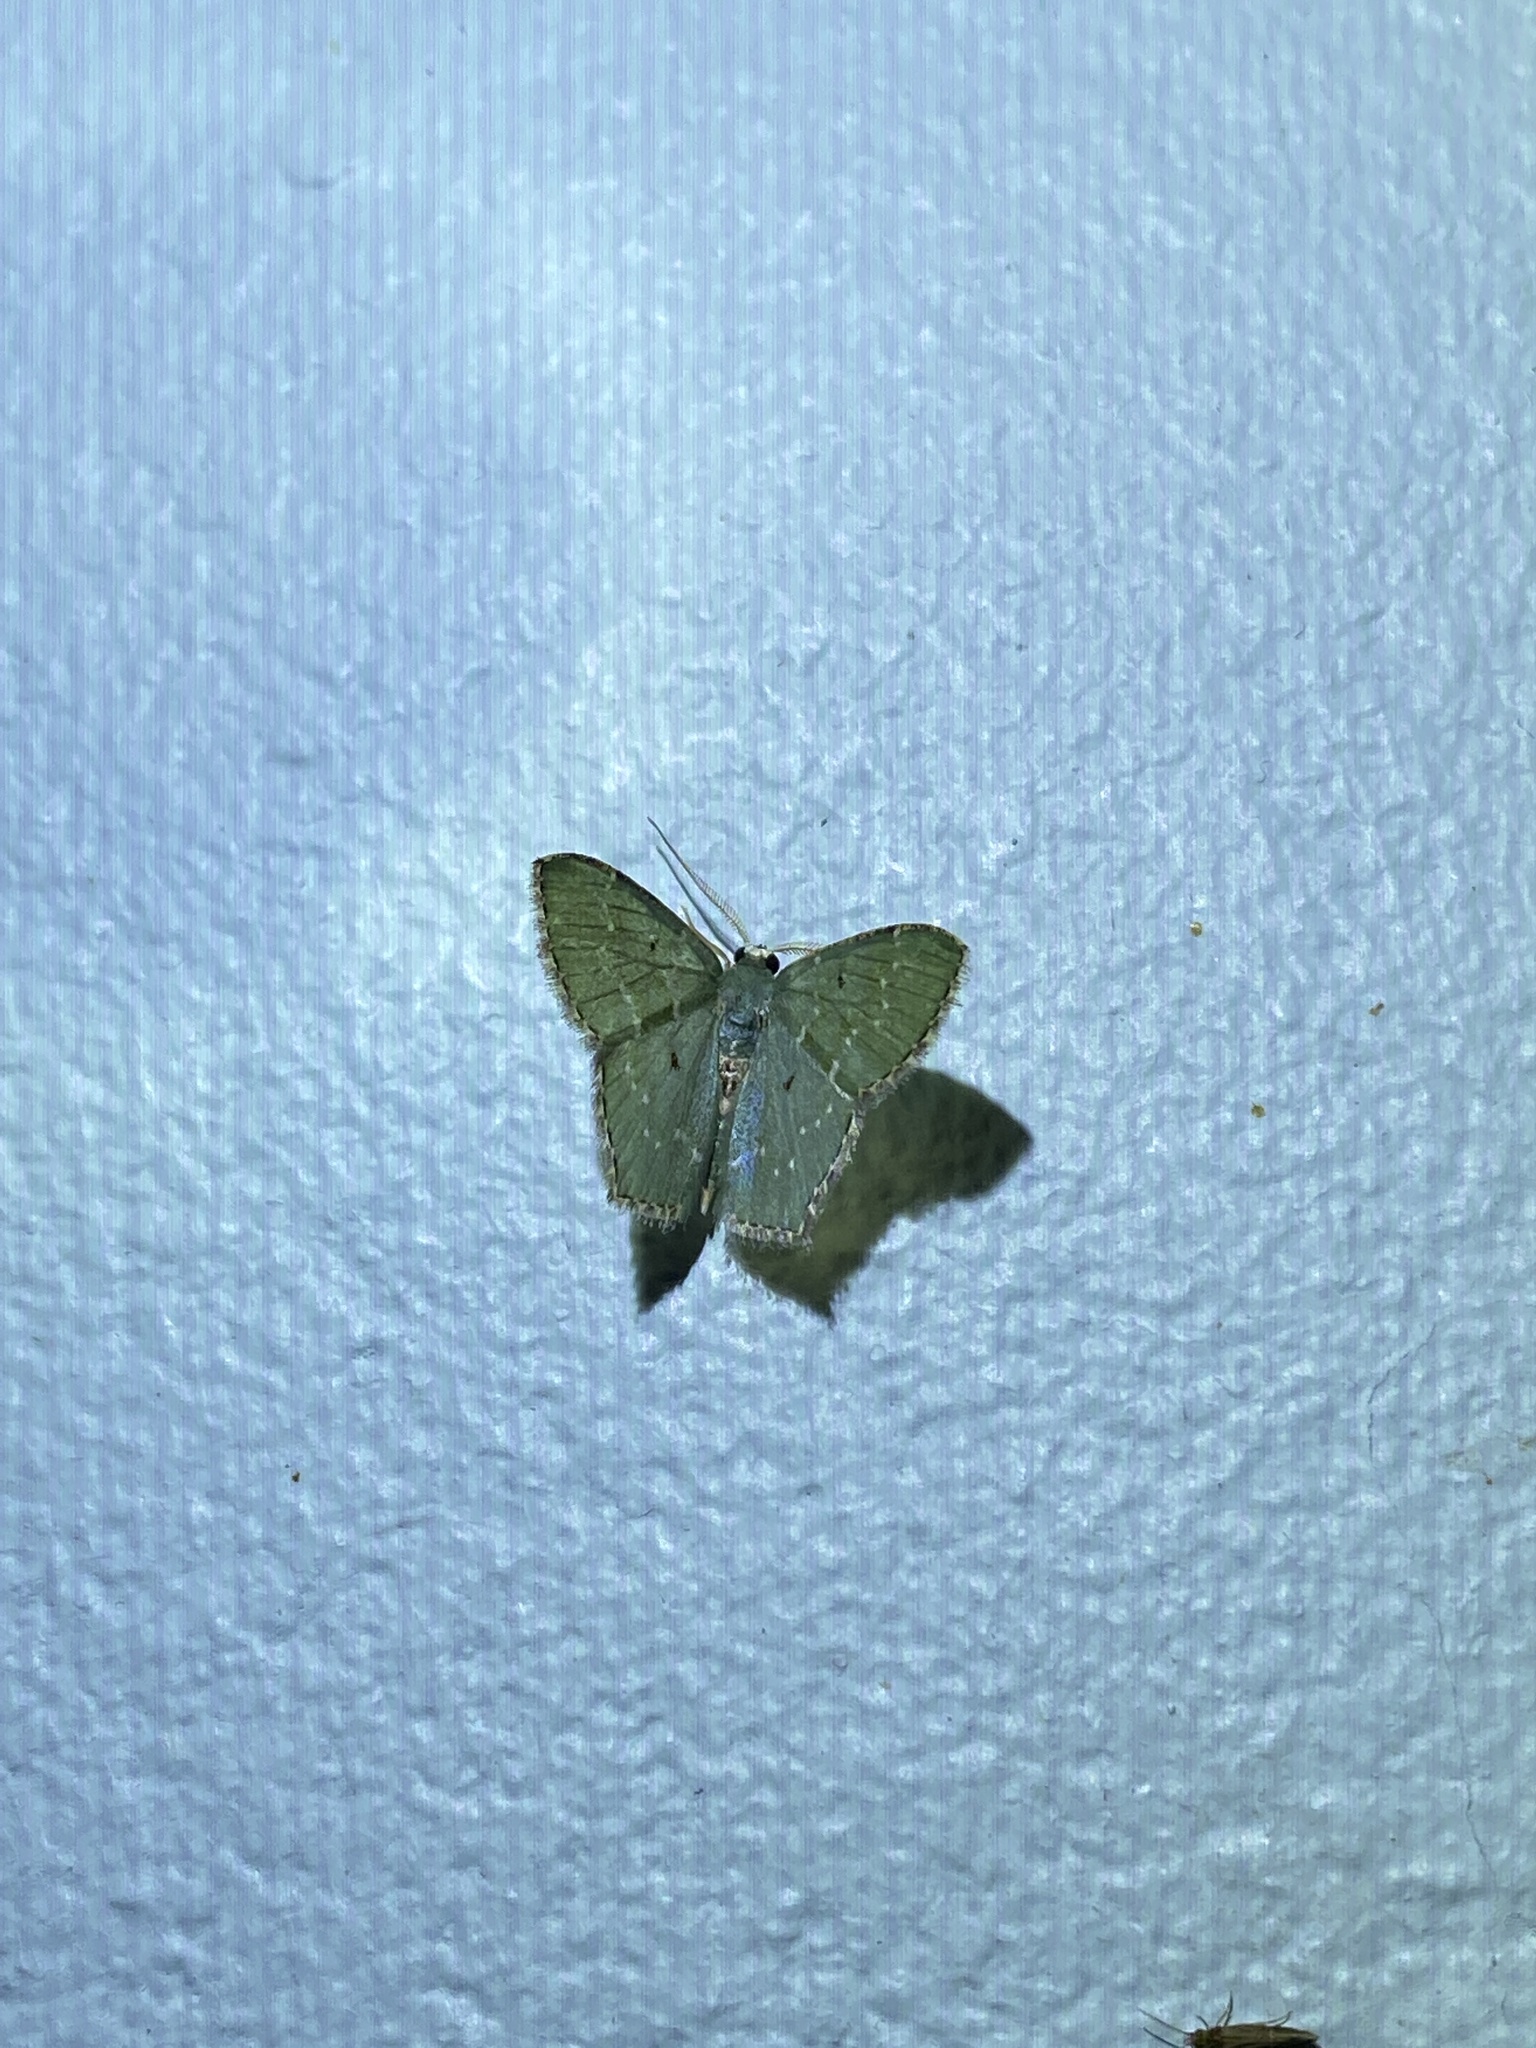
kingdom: Animalia
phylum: Arthropoda
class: Insecta
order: Lepidoptera
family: Geometridae
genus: Chloropteryx
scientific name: Chloropteryx munda
